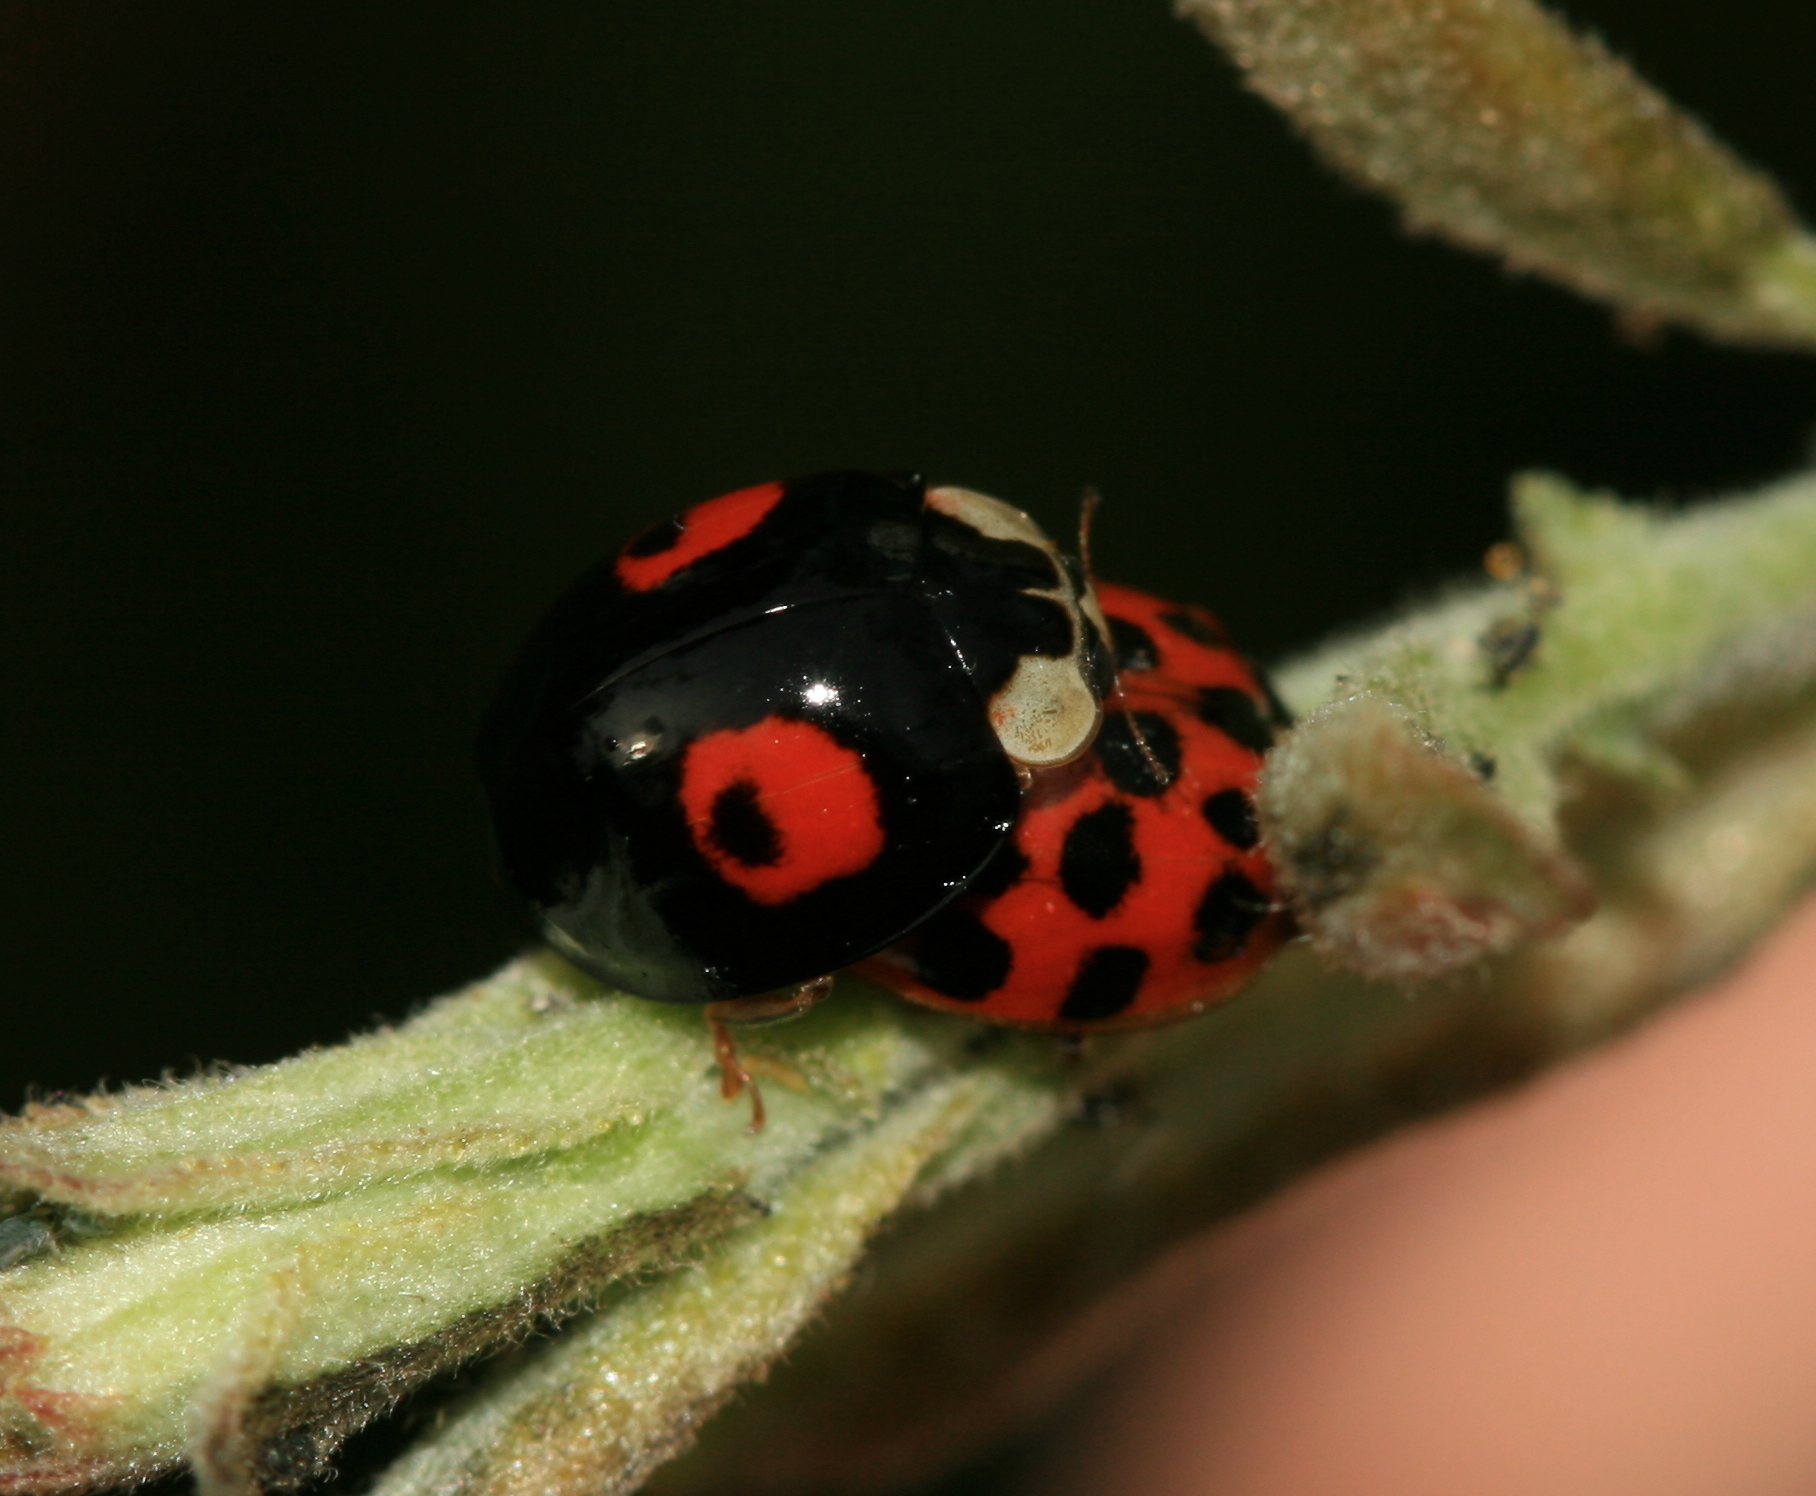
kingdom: Animalia
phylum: Arthropoda
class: Insecta
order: Coleoptera
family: Coccinellidae
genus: Harmonia
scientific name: Harmonia axyridis
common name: Harlequin ladybird
